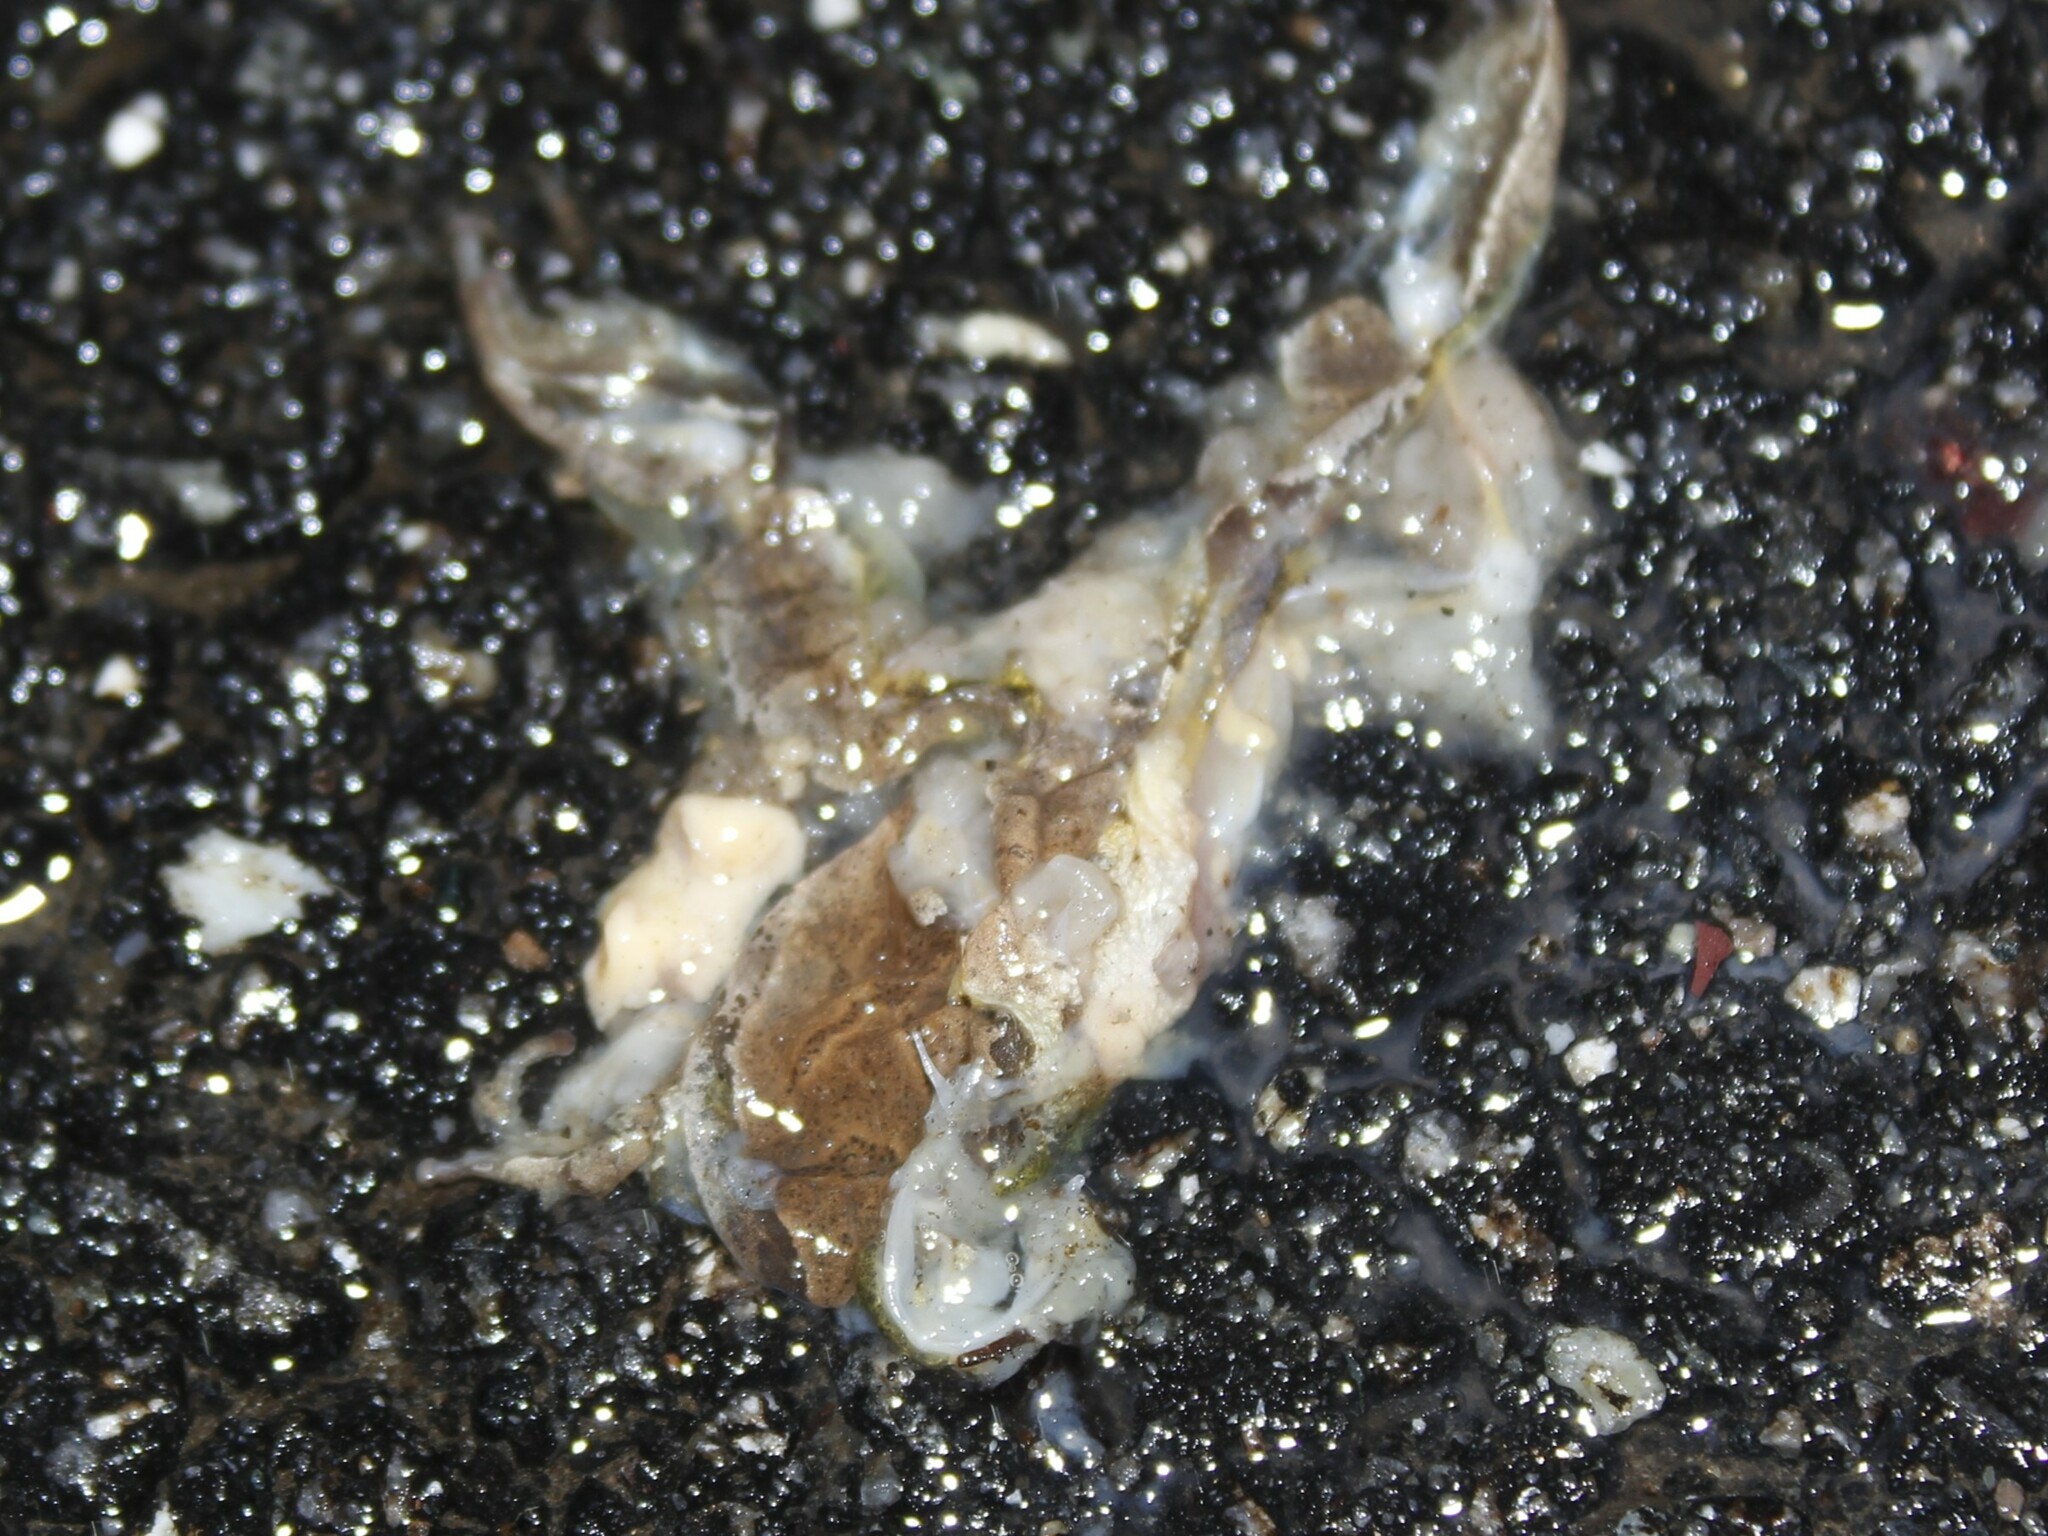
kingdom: Animalia
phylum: Chordata
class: Amphibia
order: Anura
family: Hylidae
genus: Pseudacris
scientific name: Pseudacris crucifer
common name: Spring peeper
